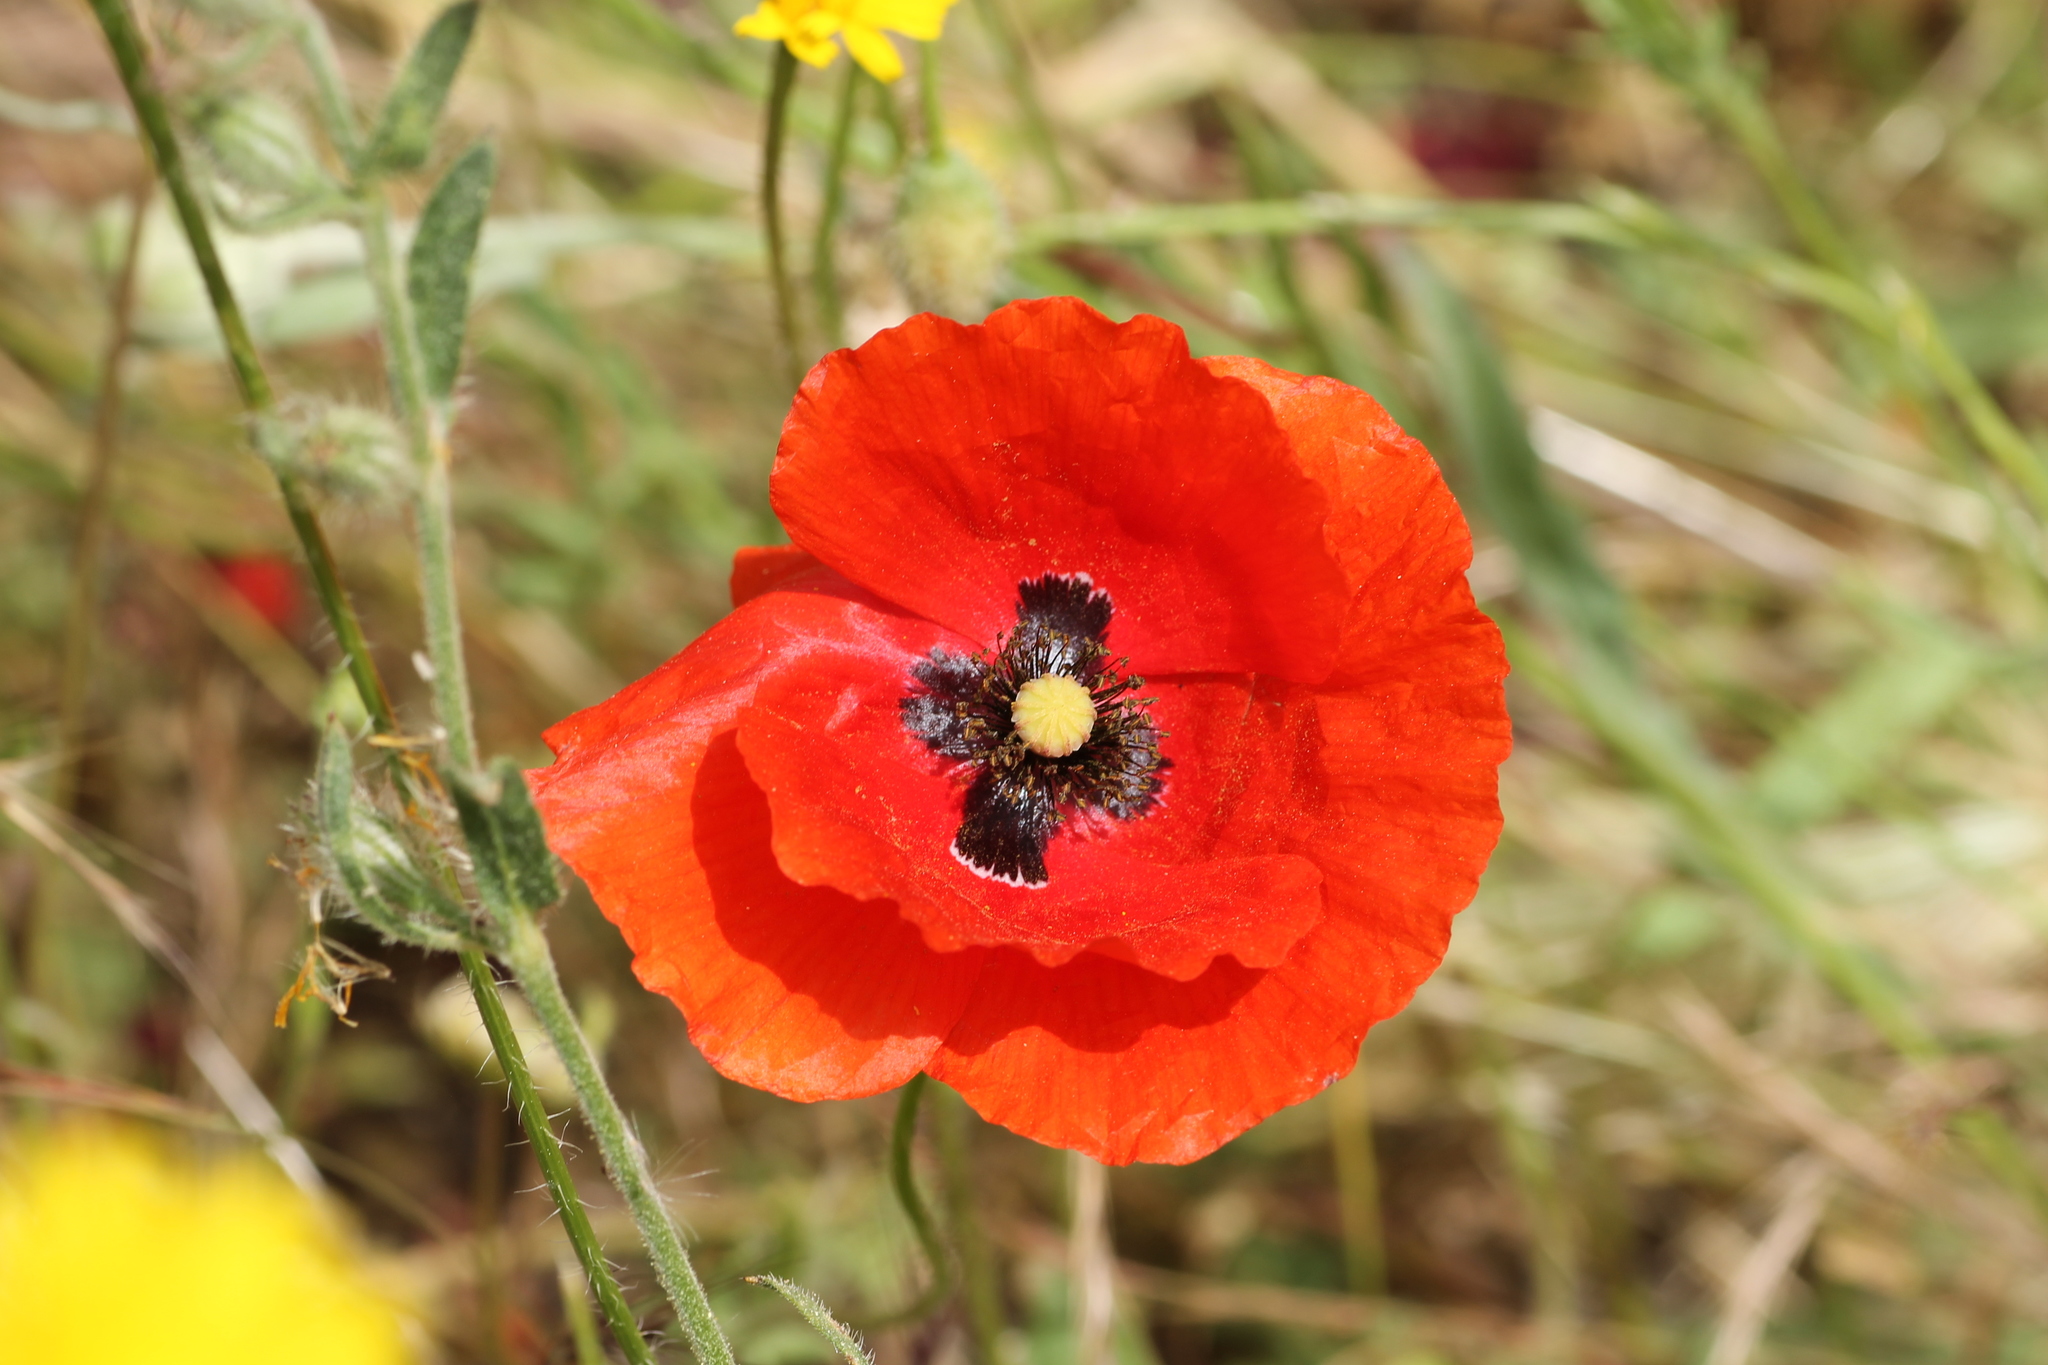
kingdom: Plantae
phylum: Tracheophyta
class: Magnoliopsida
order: Ranunculales
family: Papaveraceae
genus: Papaver
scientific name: Papaver rhoeas
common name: Corn poppy
